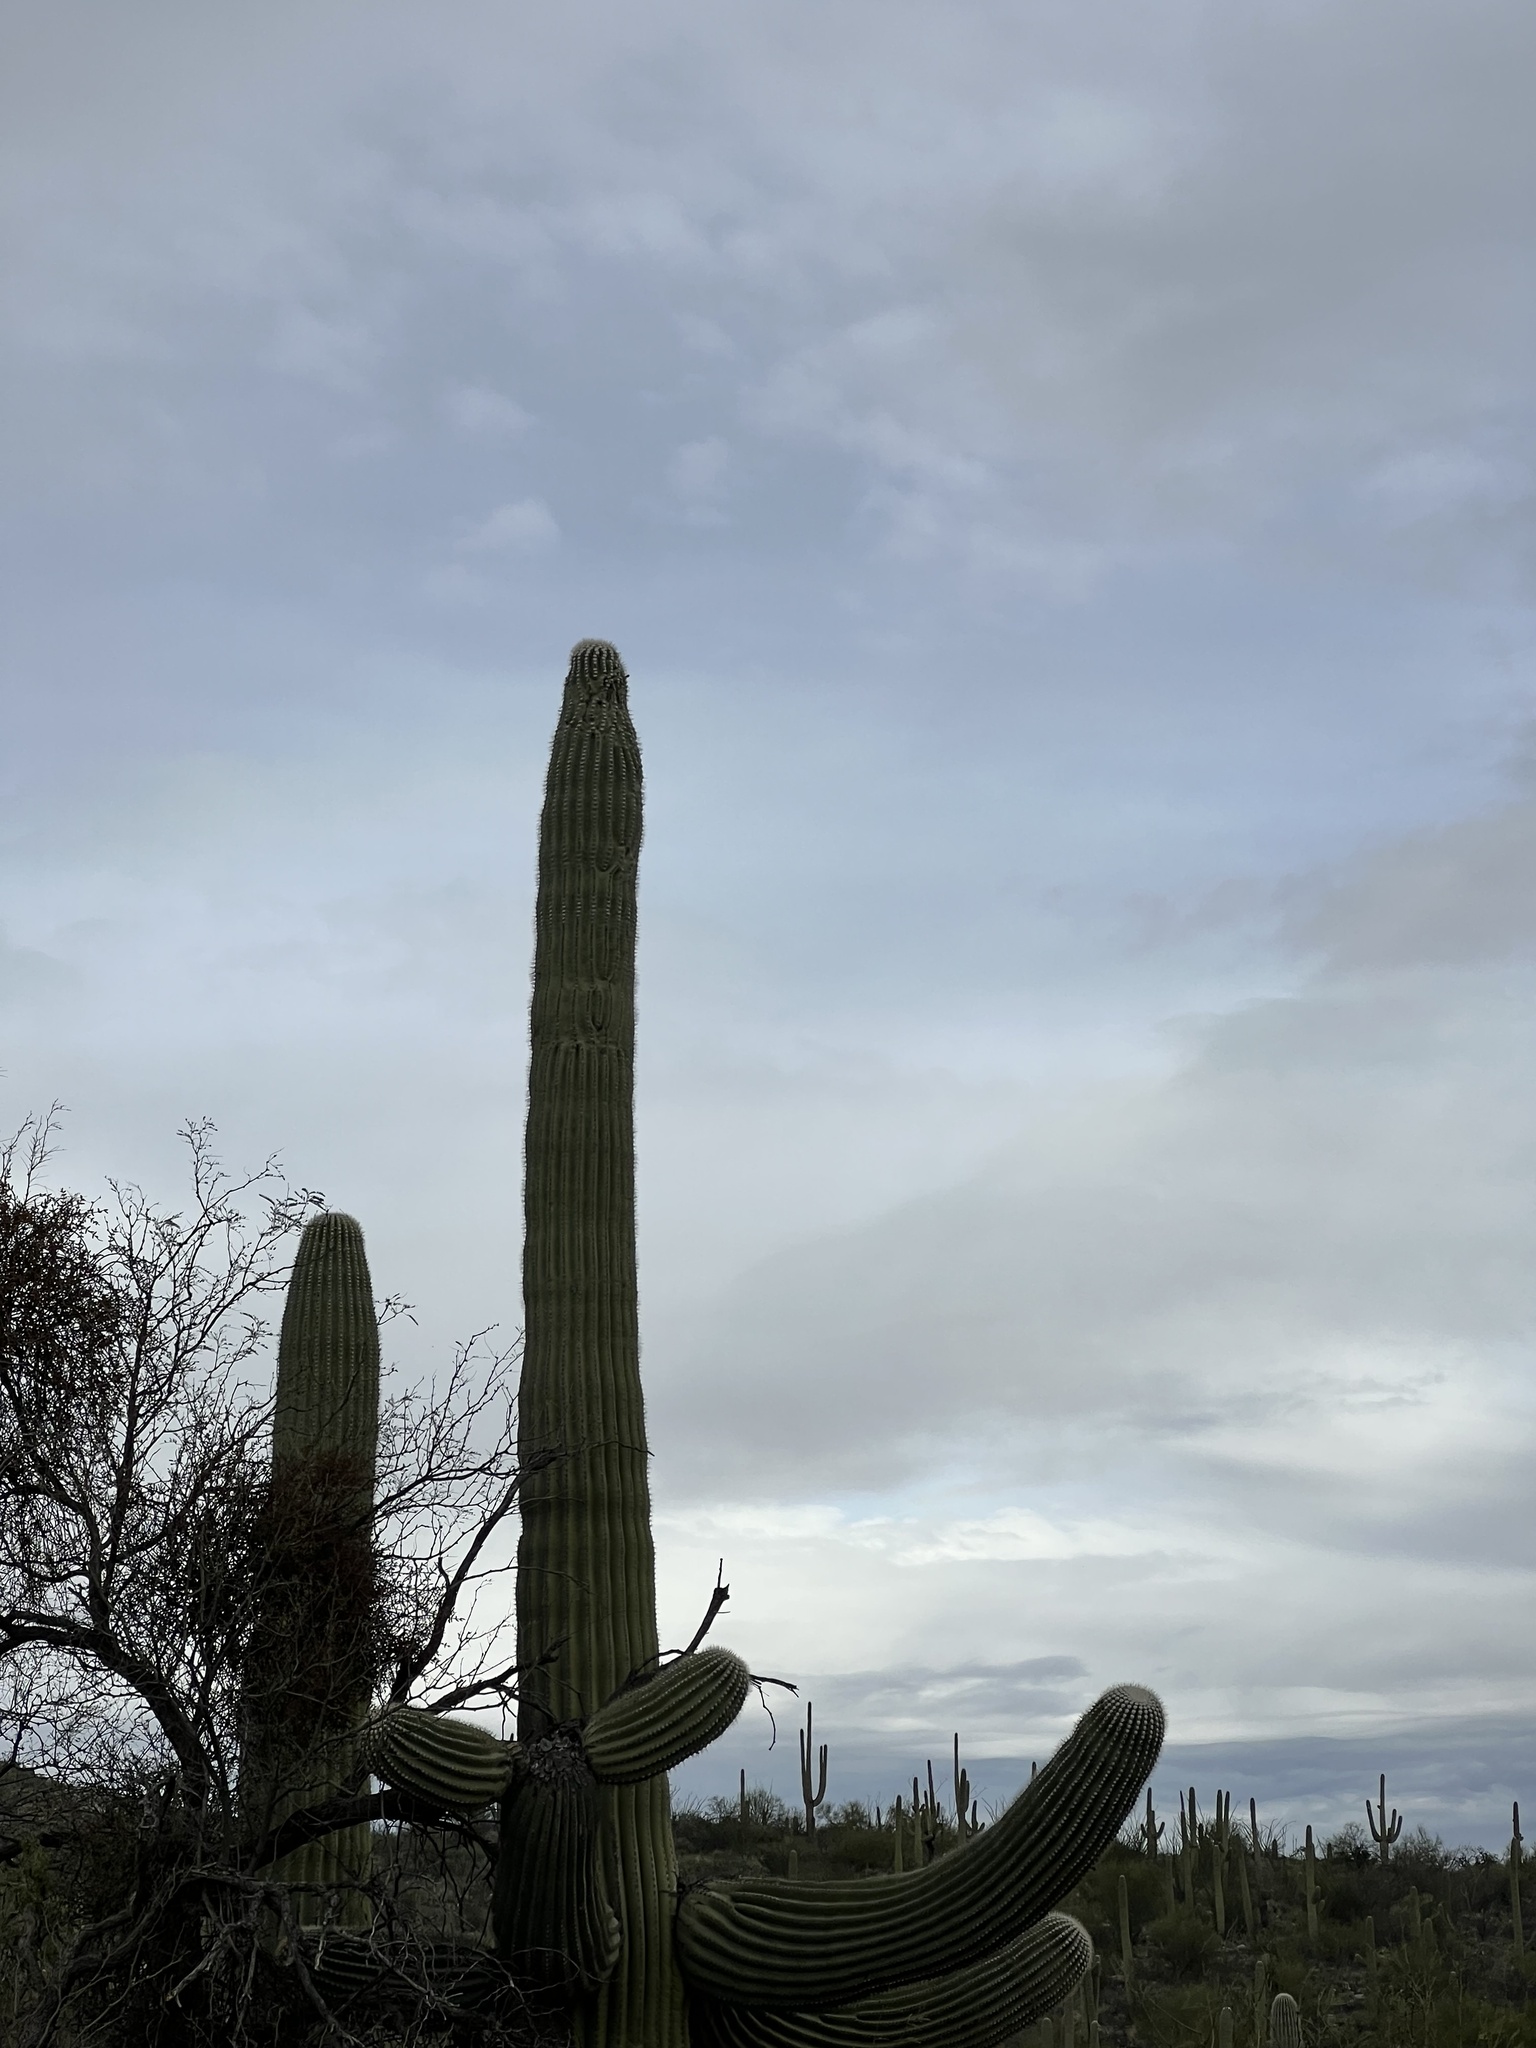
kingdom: Plantae
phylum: Tracheophyta
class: Magnoliopsida
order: Caryophyllales
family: Cactaceae
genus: Carnegiea
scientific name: Carnegiea gigantea
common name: Saguaro
